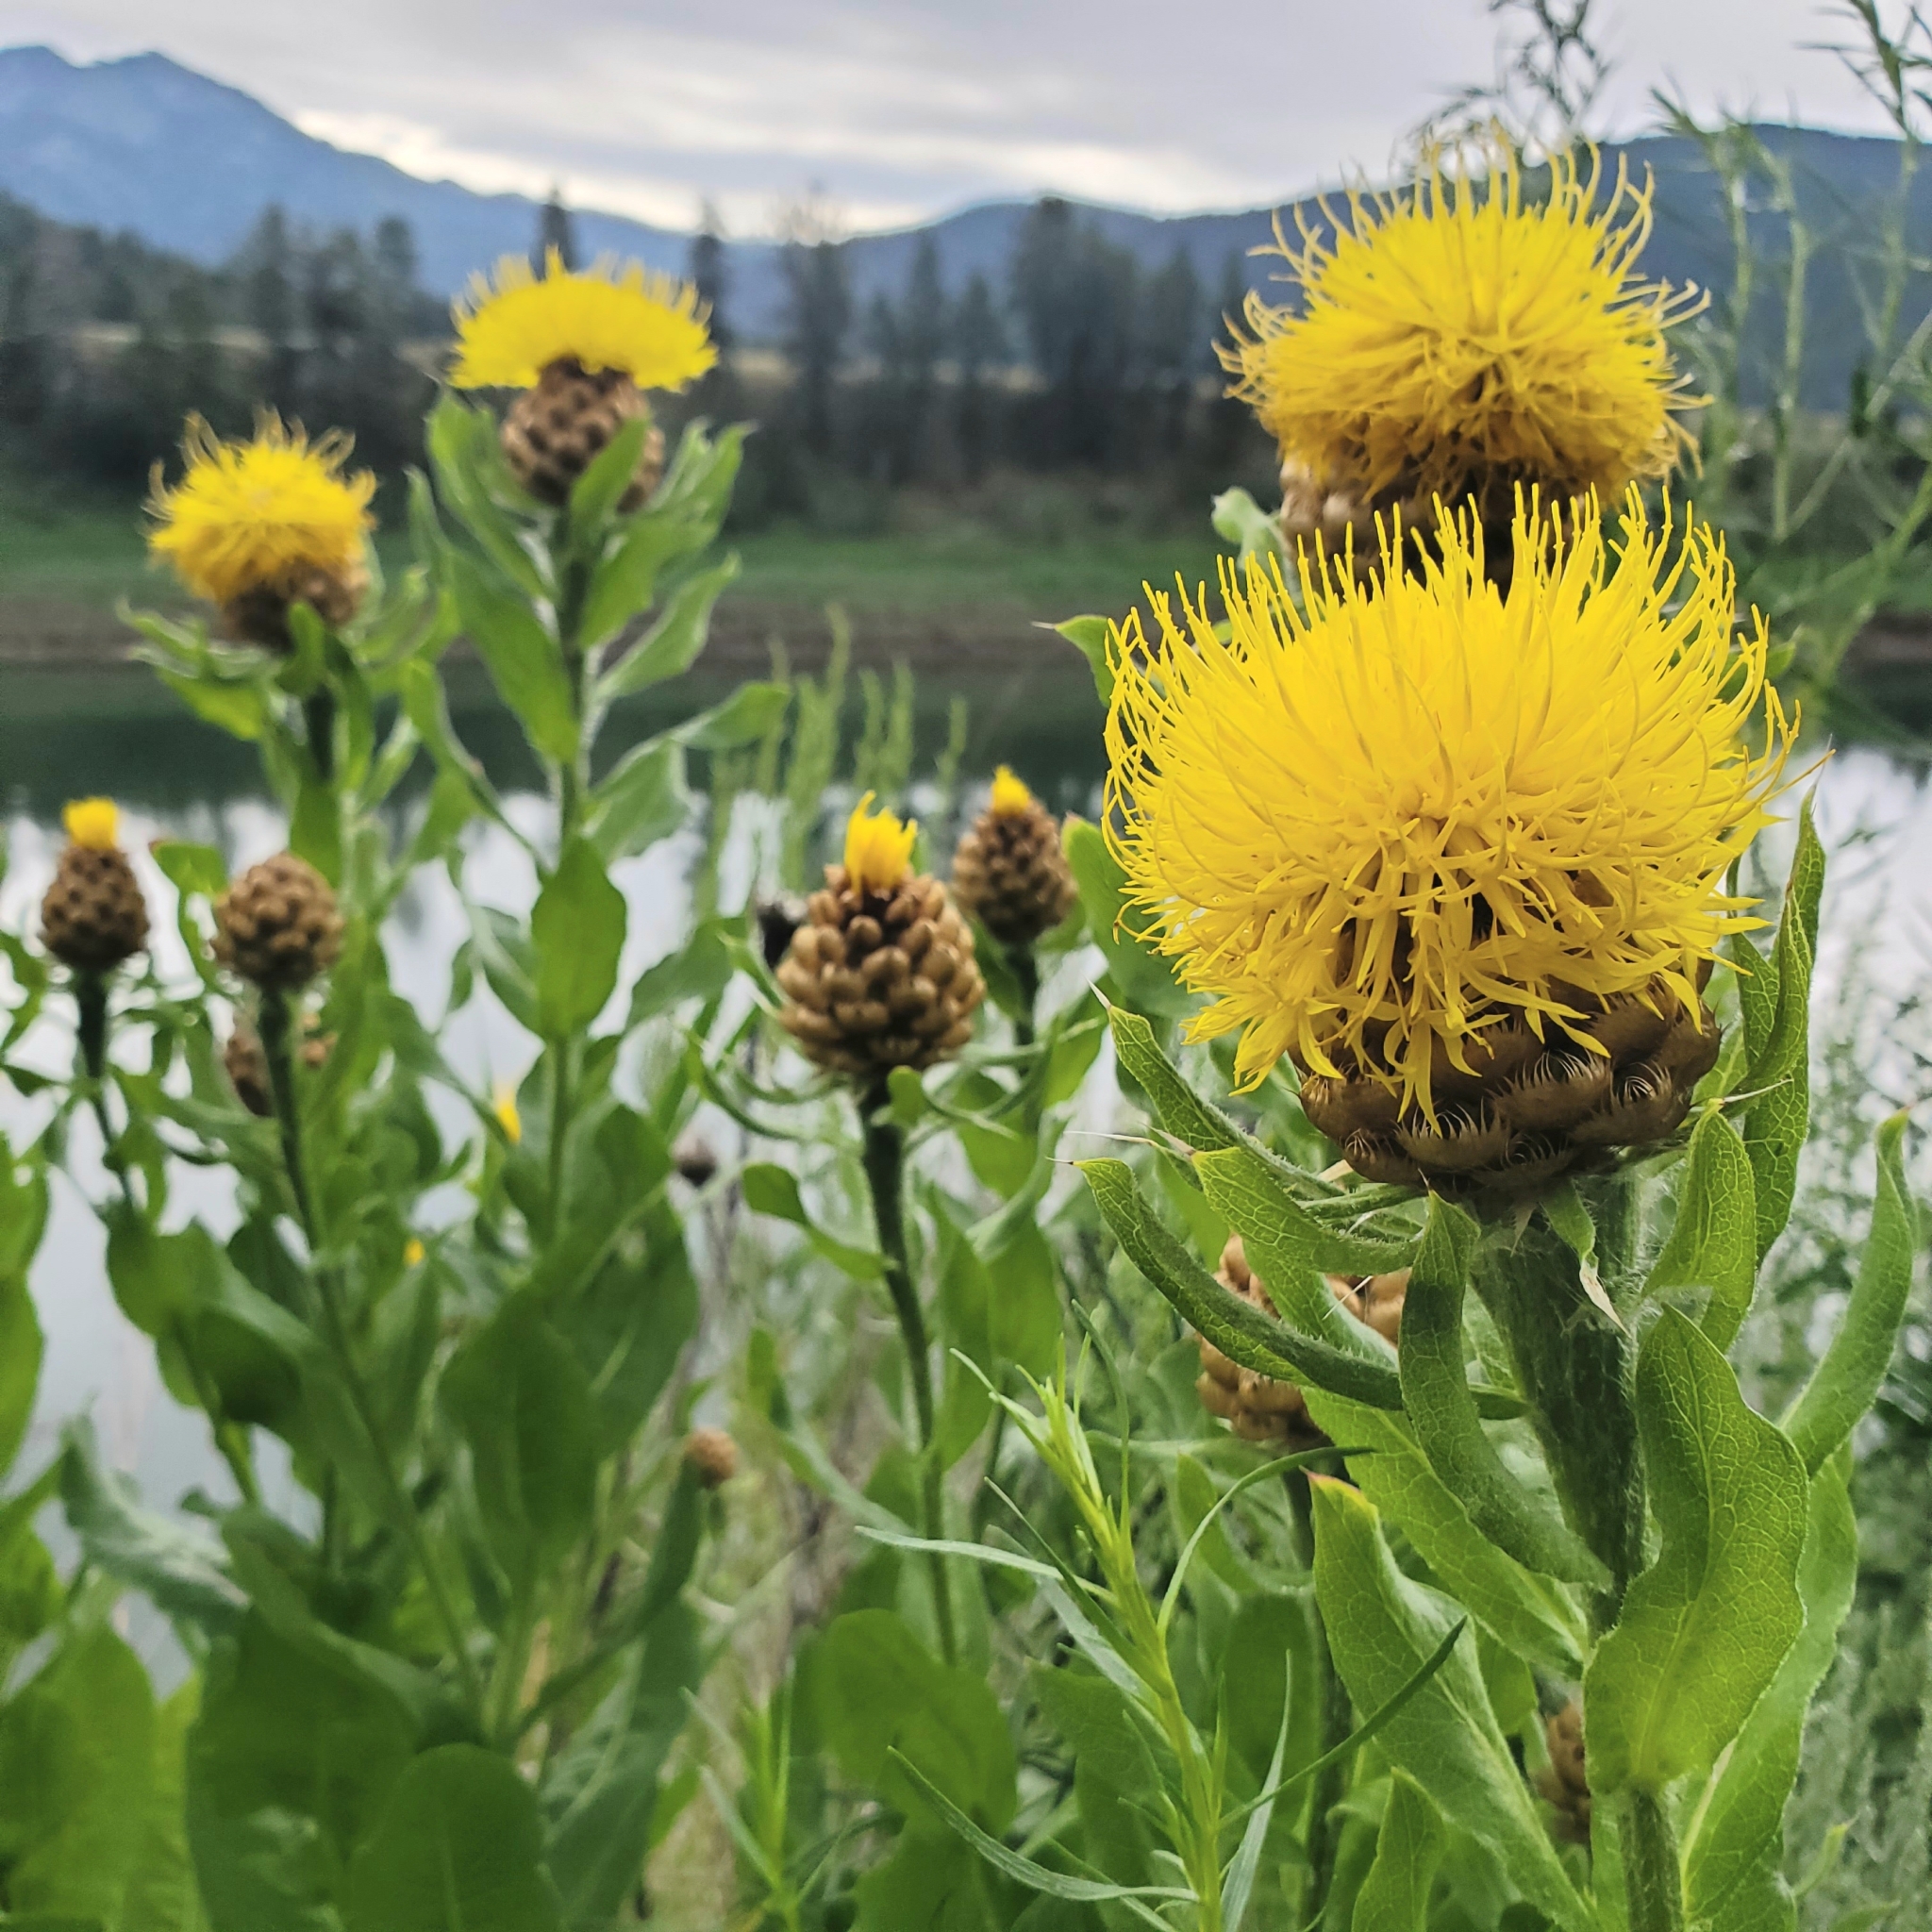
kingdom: Plantae
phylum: Tracheophyta
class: Magnoliopsida
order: Asterales
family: Asteraceae
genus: Centaurea
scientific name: Centaurea macrocephala
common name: Big-head knapweed
